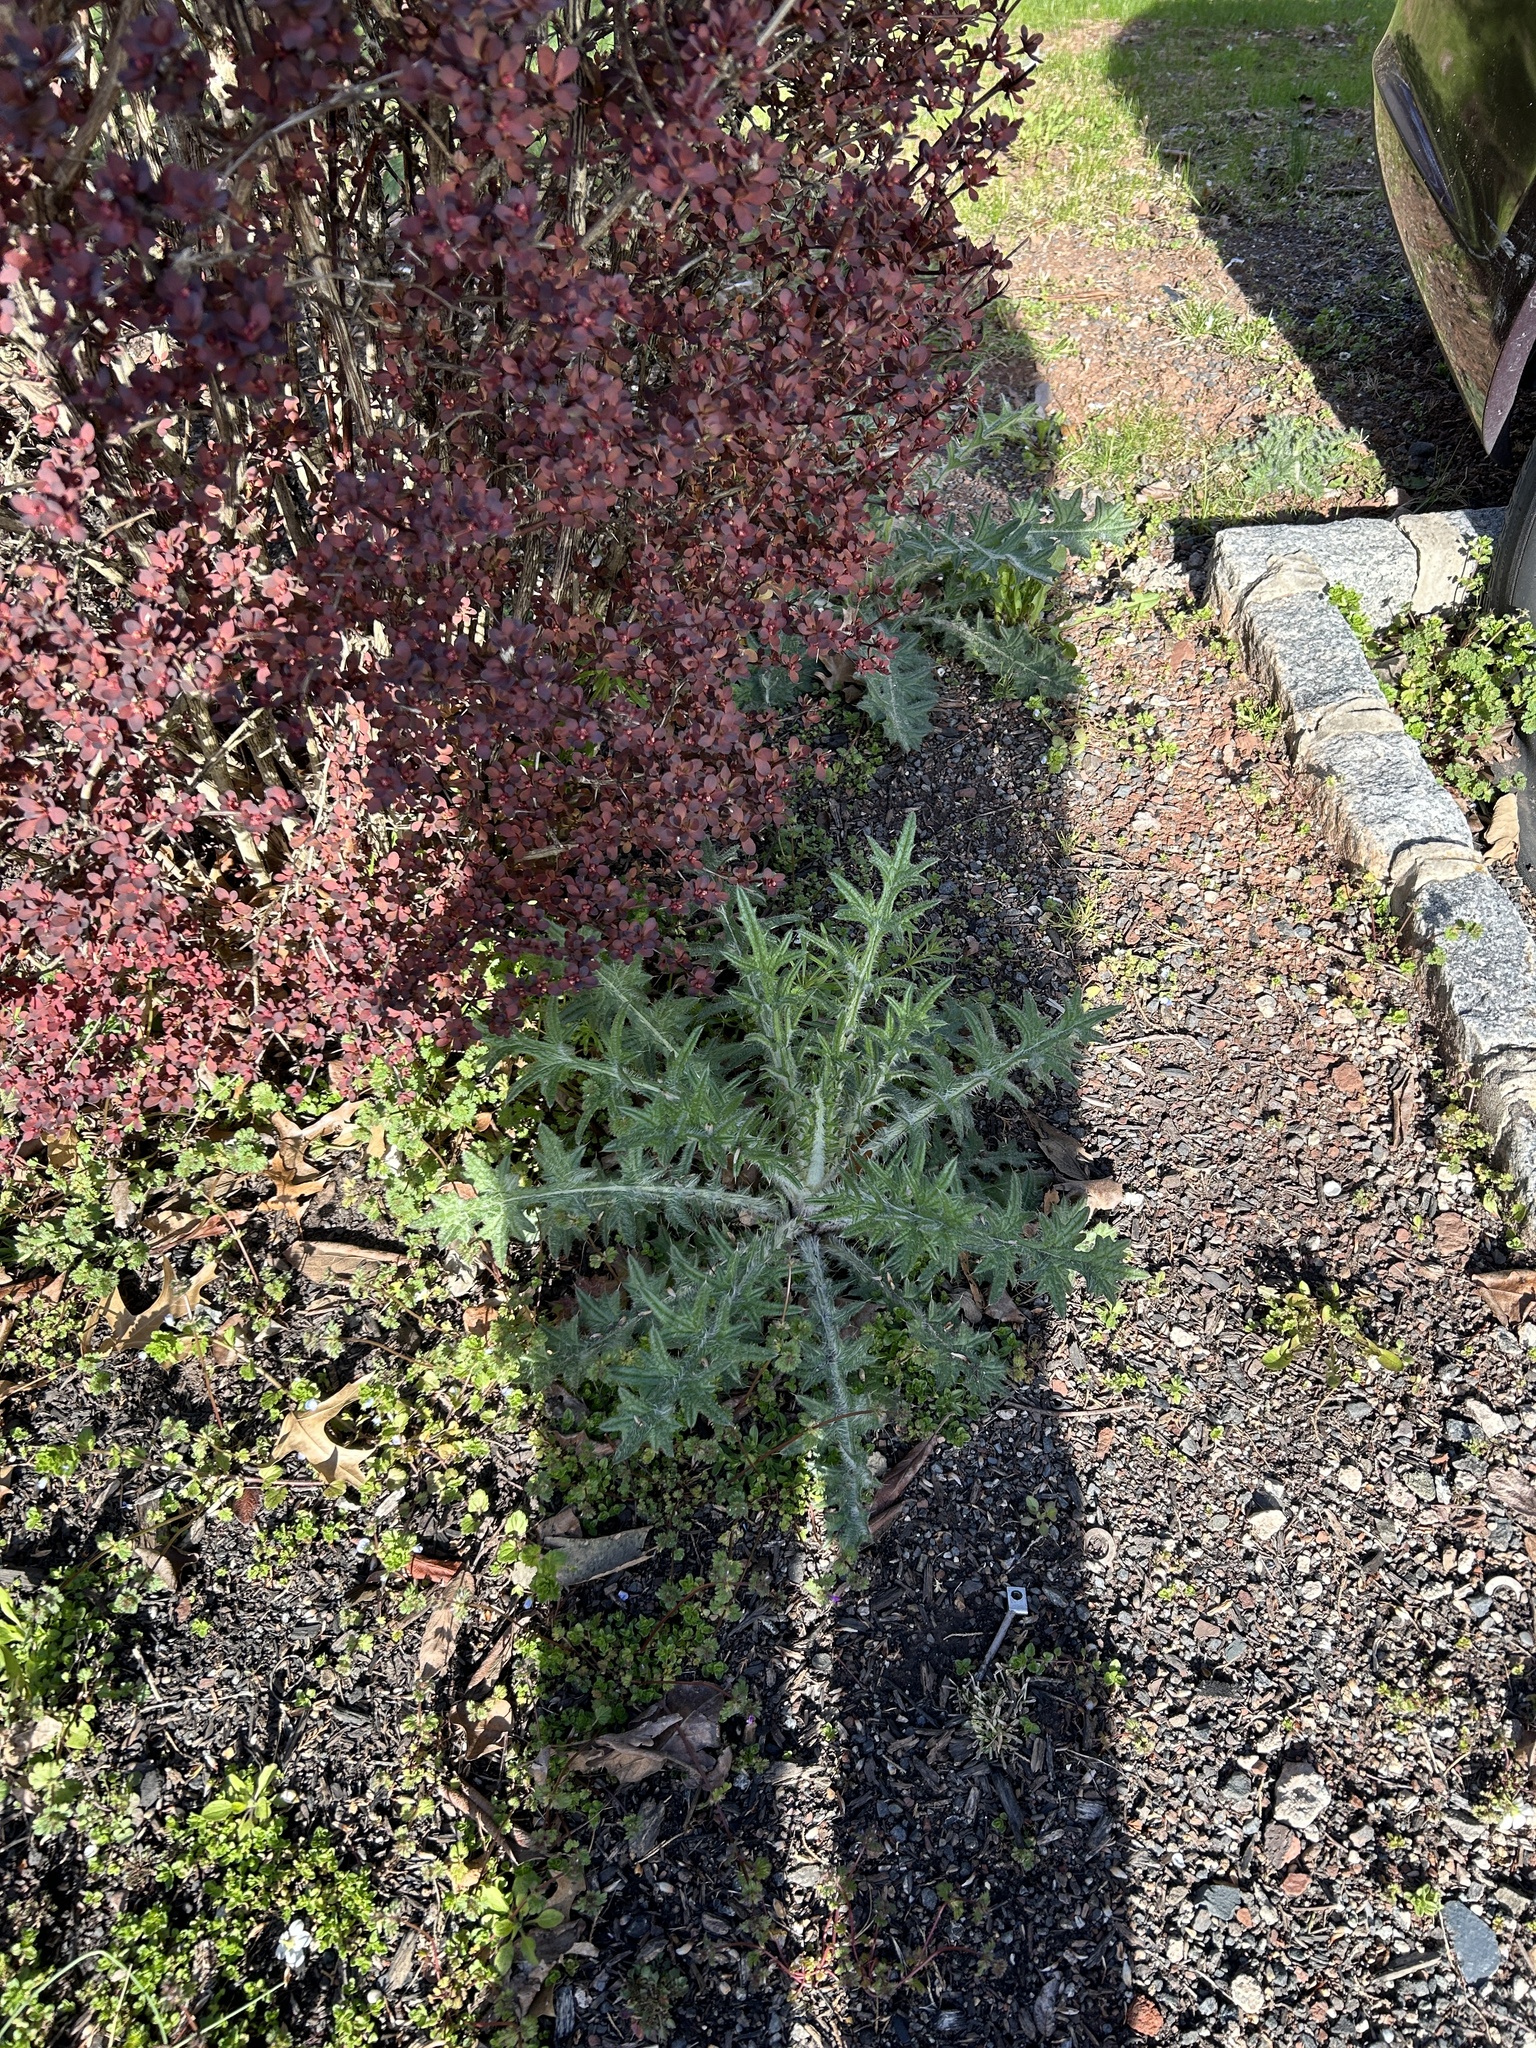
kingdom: Plantae
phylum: Tracheophyta
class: Magnoliopsida
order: Asterales
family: Asteraceae
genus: Cirsium
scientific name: Cirsium vulgare
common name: Bull thistle
